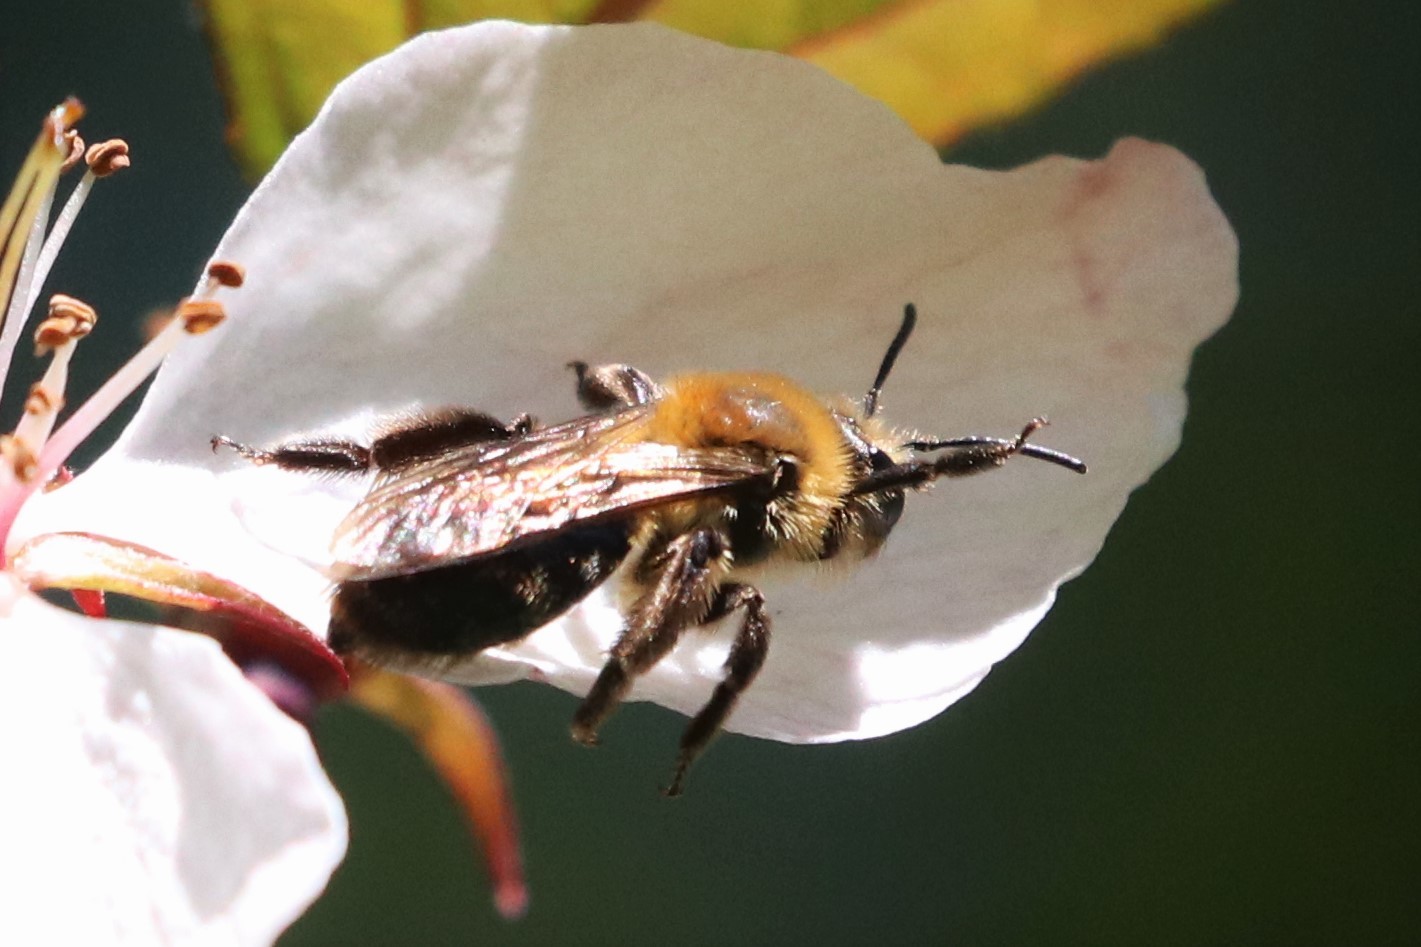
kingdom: Animalia
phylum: Arthropoda
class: Insecta
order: Hymenoptera
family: Andrenidae
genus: Andrena
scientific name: Andrena dunningi
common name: Dunning's miner
